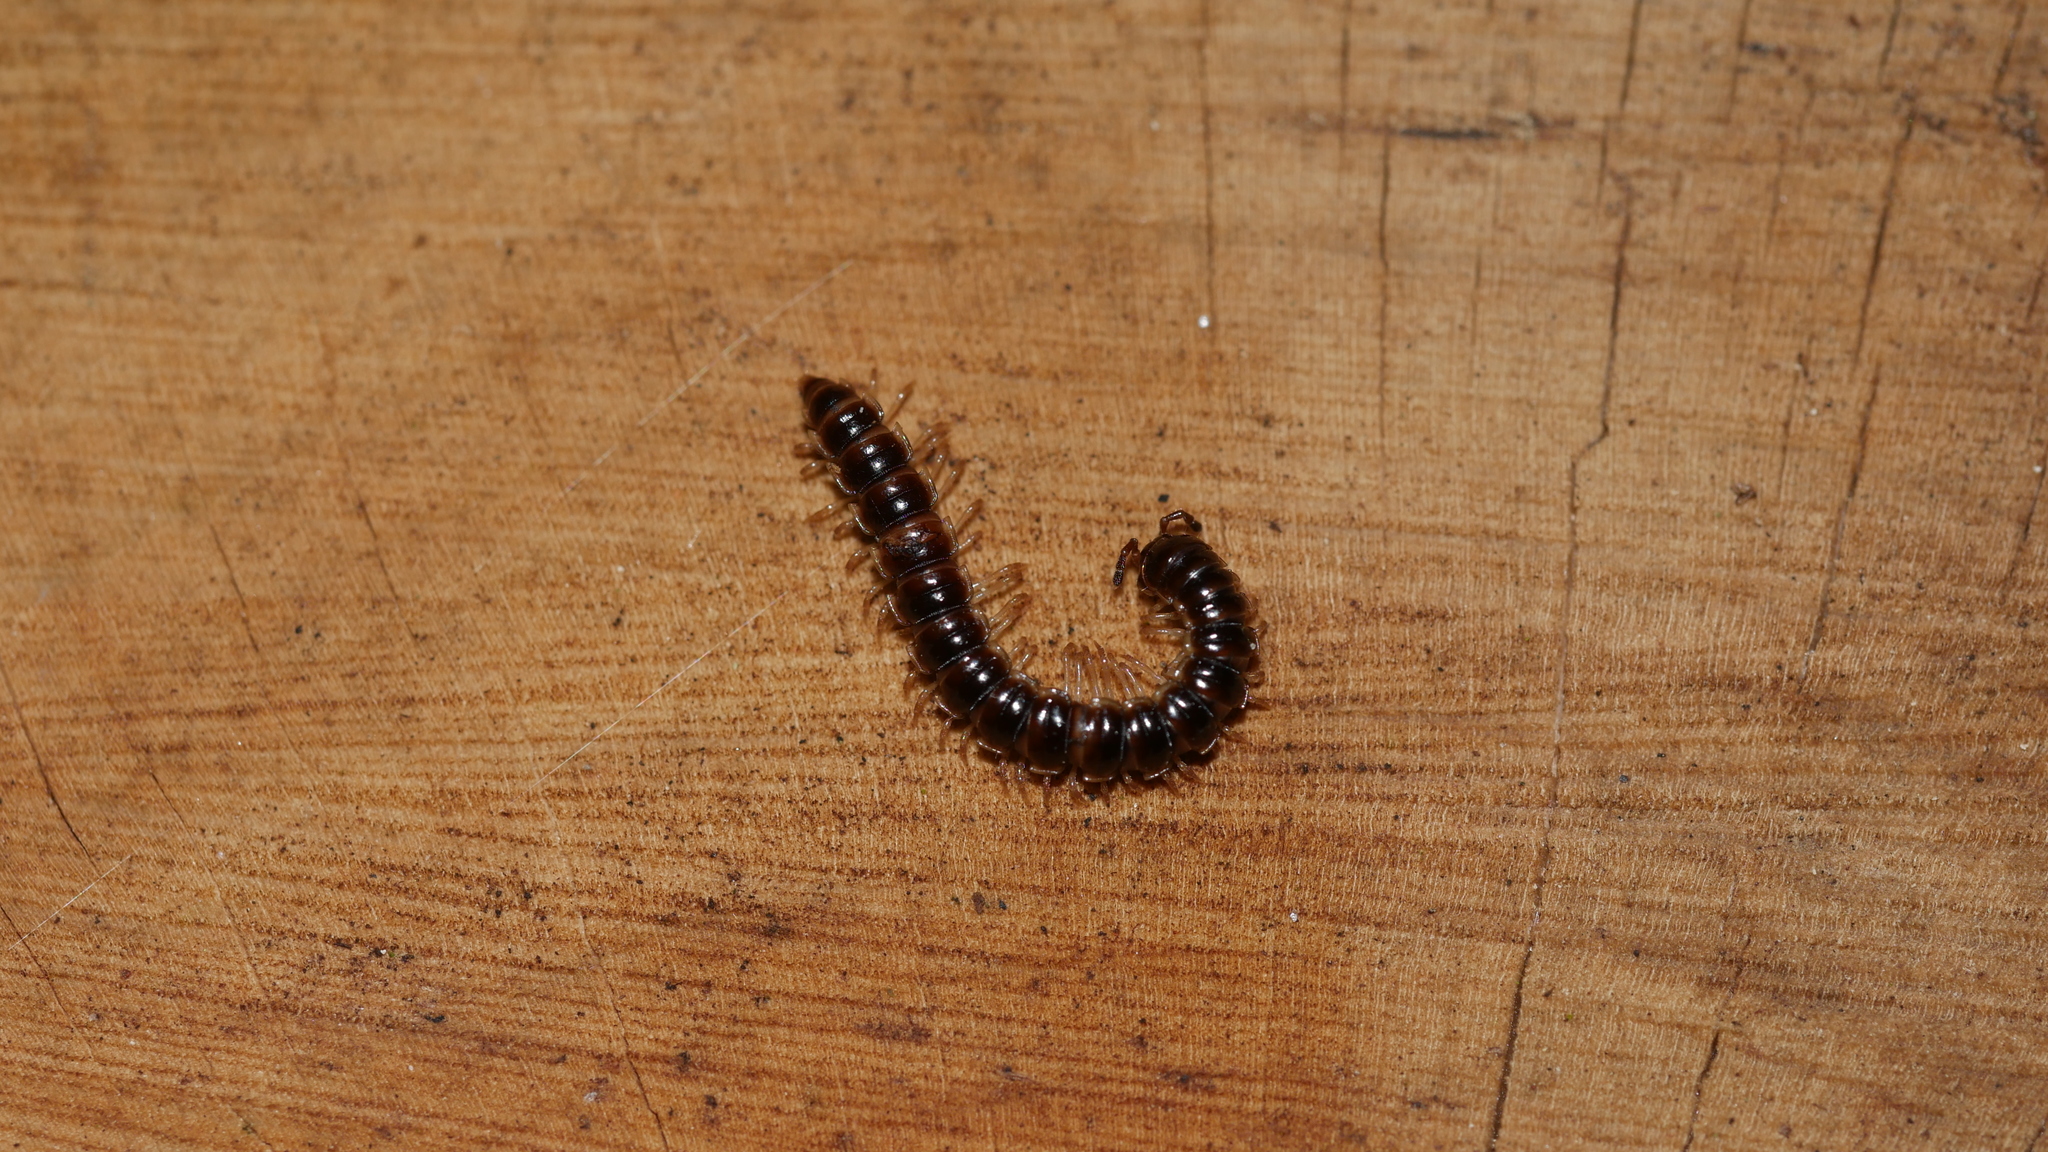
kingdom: Animalia
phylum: Arthropoda
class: Diplopoda
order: Polydesmida
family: Paradoxosomatidae
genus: Oxidus
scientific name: Oxidus gracilis
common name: Greenhouse millipede
